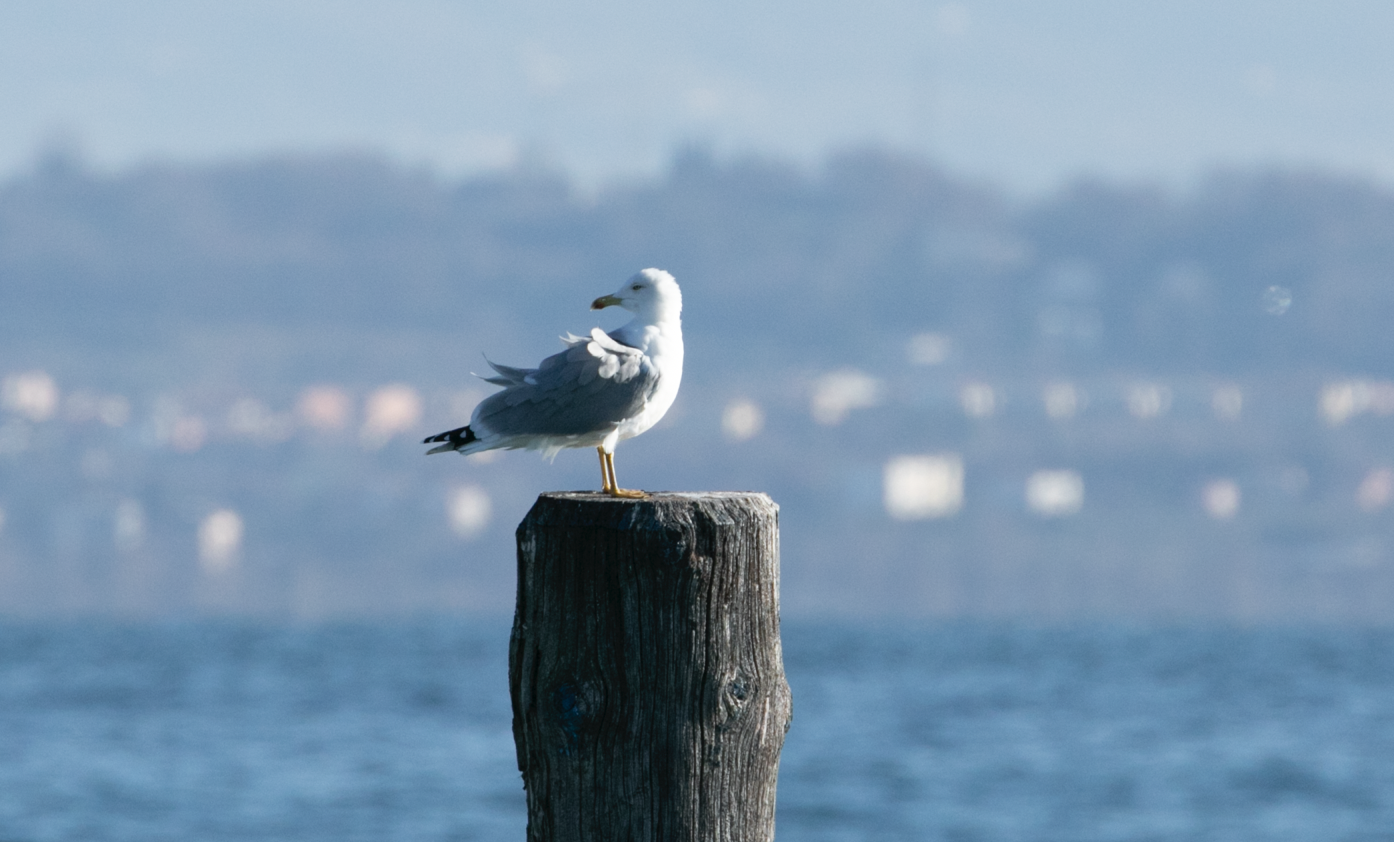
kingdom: Animalia
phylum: Chordata
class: Aves
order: Charadriiformes
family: Laridae
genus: Larus
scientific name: Larus michahellis
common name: Yellow-legged gull
